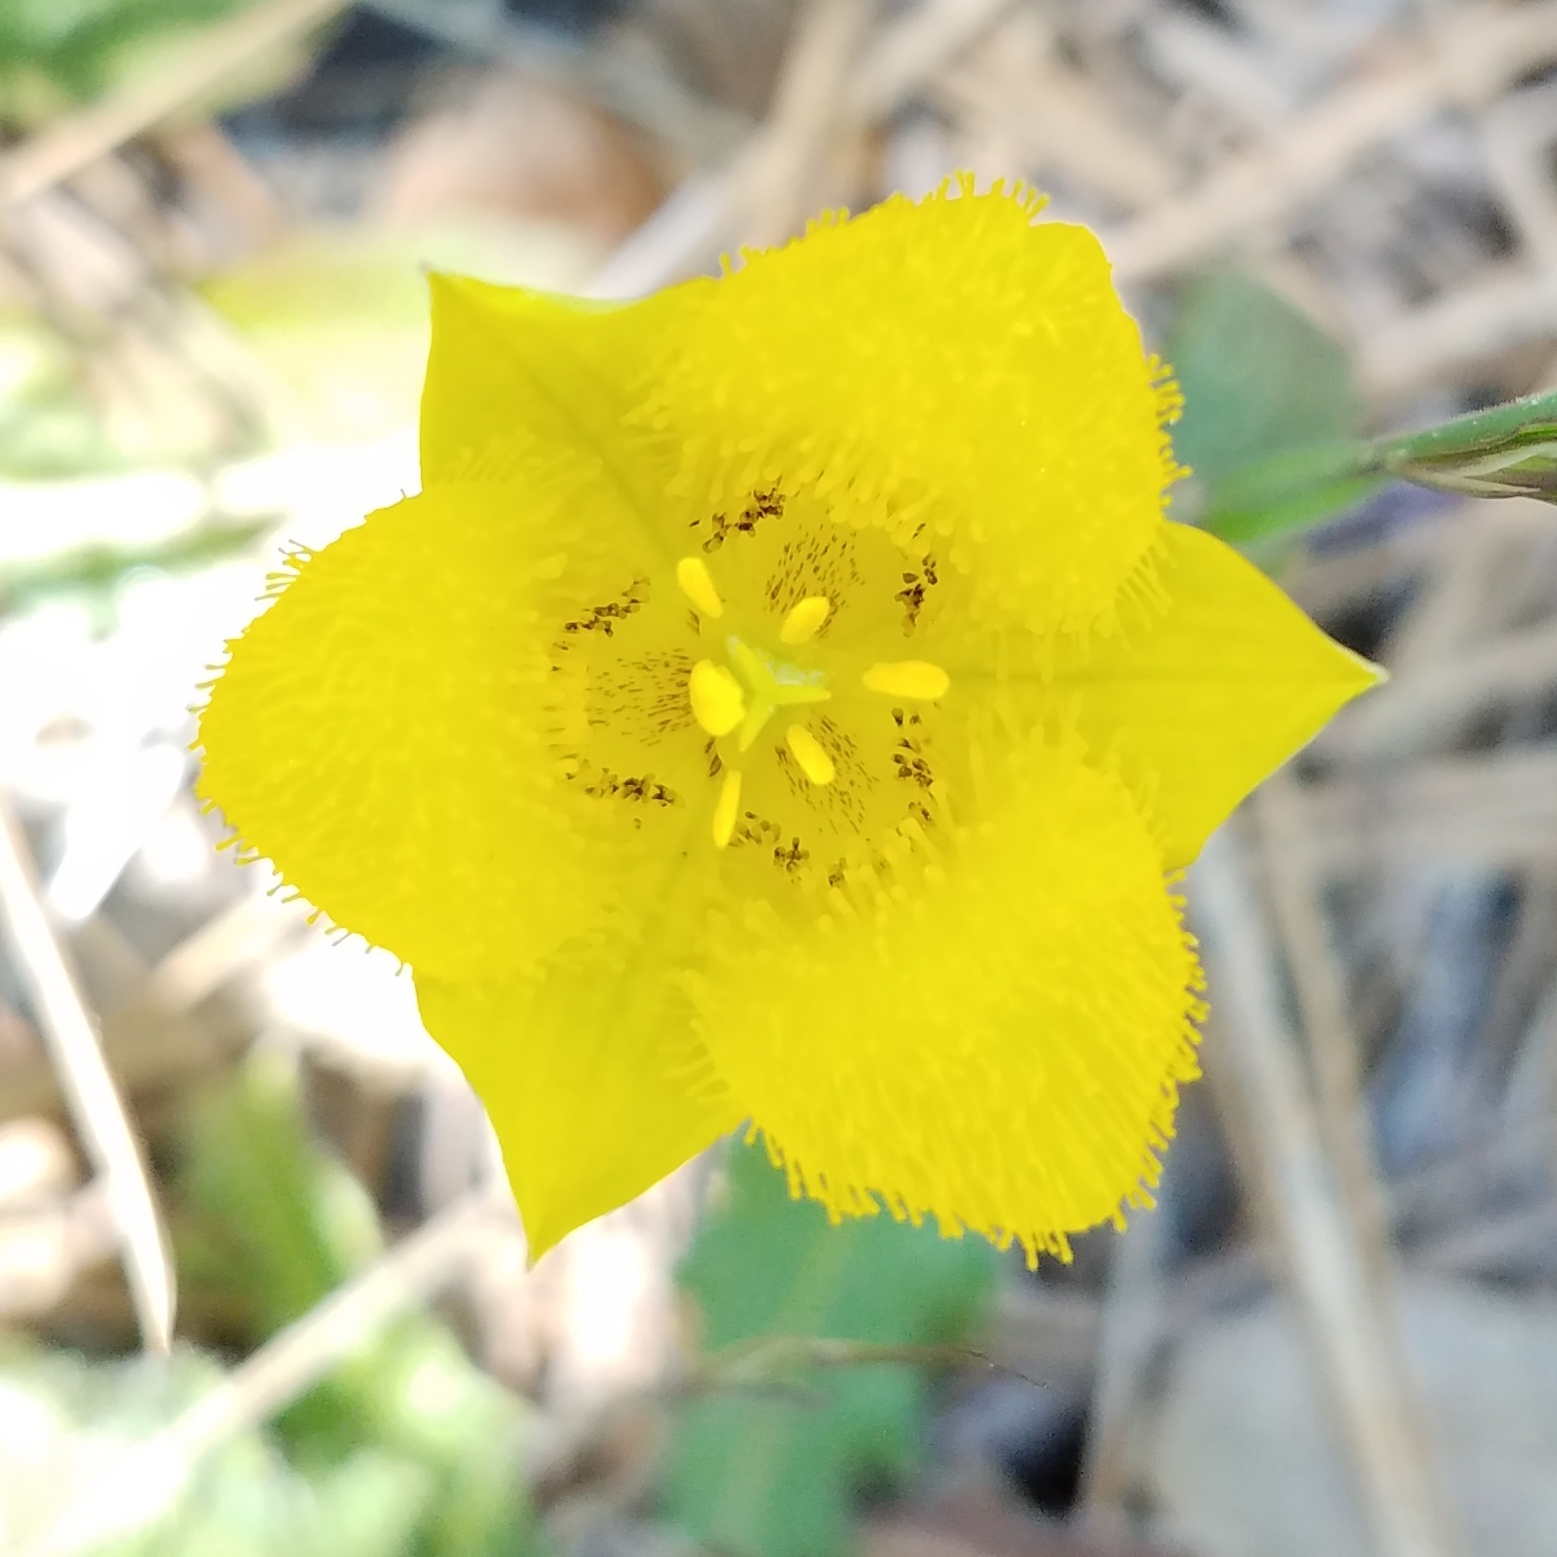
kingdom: Plantae
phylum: Tracheophyta
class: Liliopsida
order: Liliales
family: Liliaceae
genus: Calochortus
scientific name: Calochortus monophyllus
